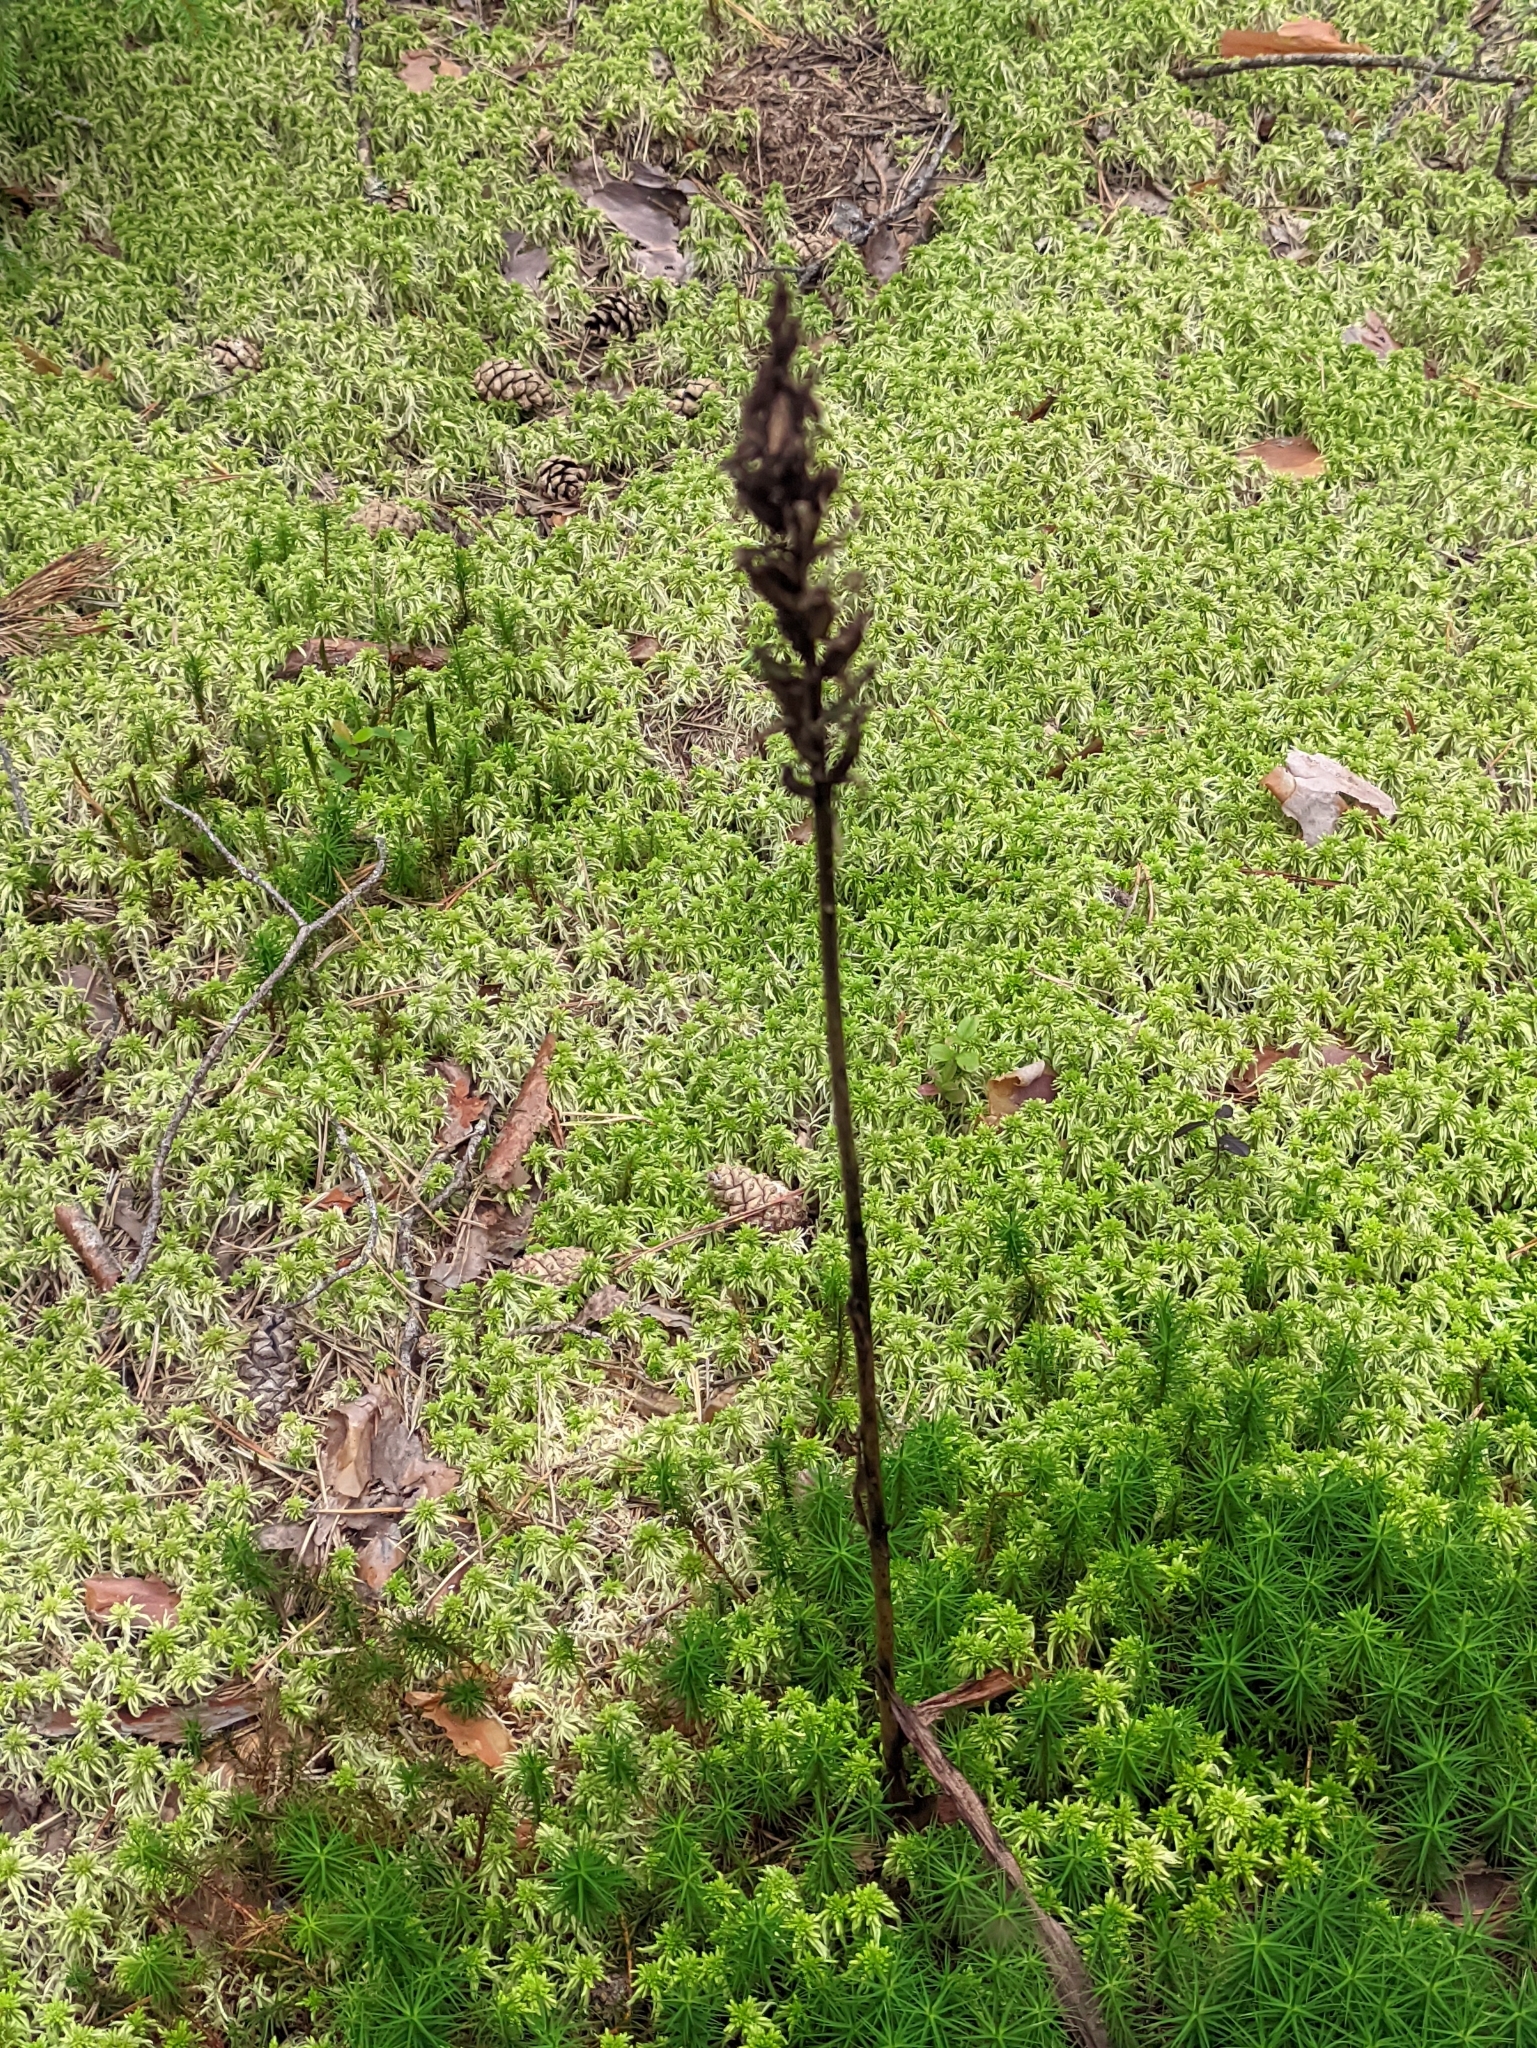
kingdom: Plantae
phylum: Tracheophyta
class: Liliopsida
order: Asparagales
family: Orchidaceae
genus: Dactylorhiza
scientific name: Dactylorhiza maculata
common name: Heath spotted-orchid
